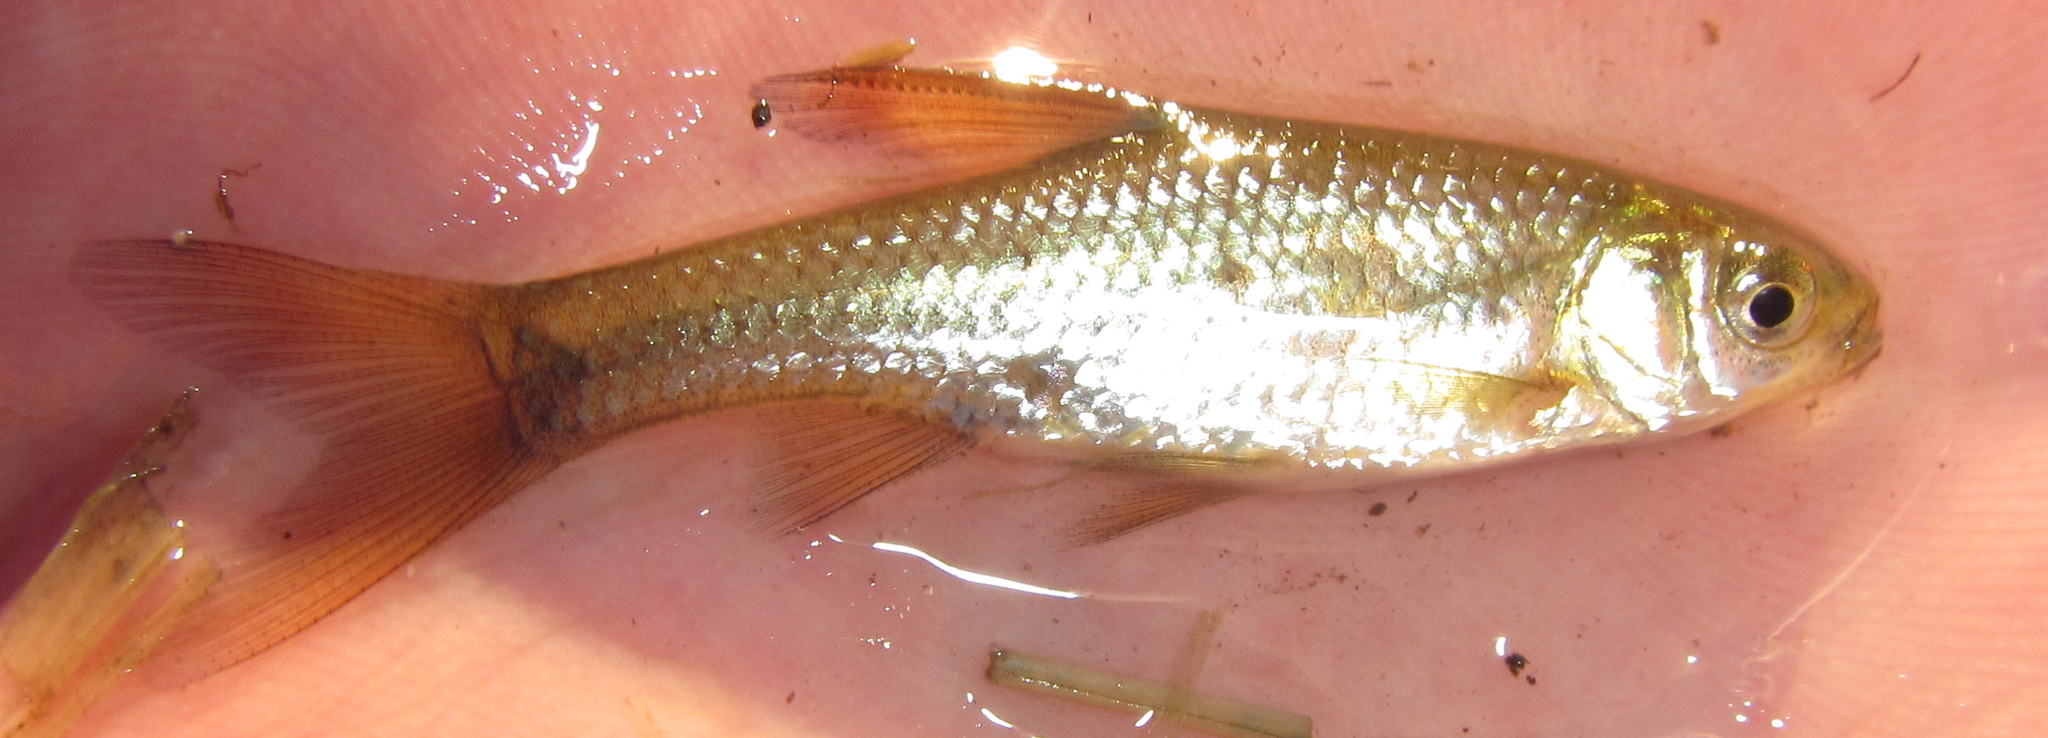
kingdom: Animalia
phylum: Chordata
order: Cypriniformes
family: Cyprinidae
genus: Enteromius
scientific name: Enteromius paludinosus
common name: Straightfin barb
